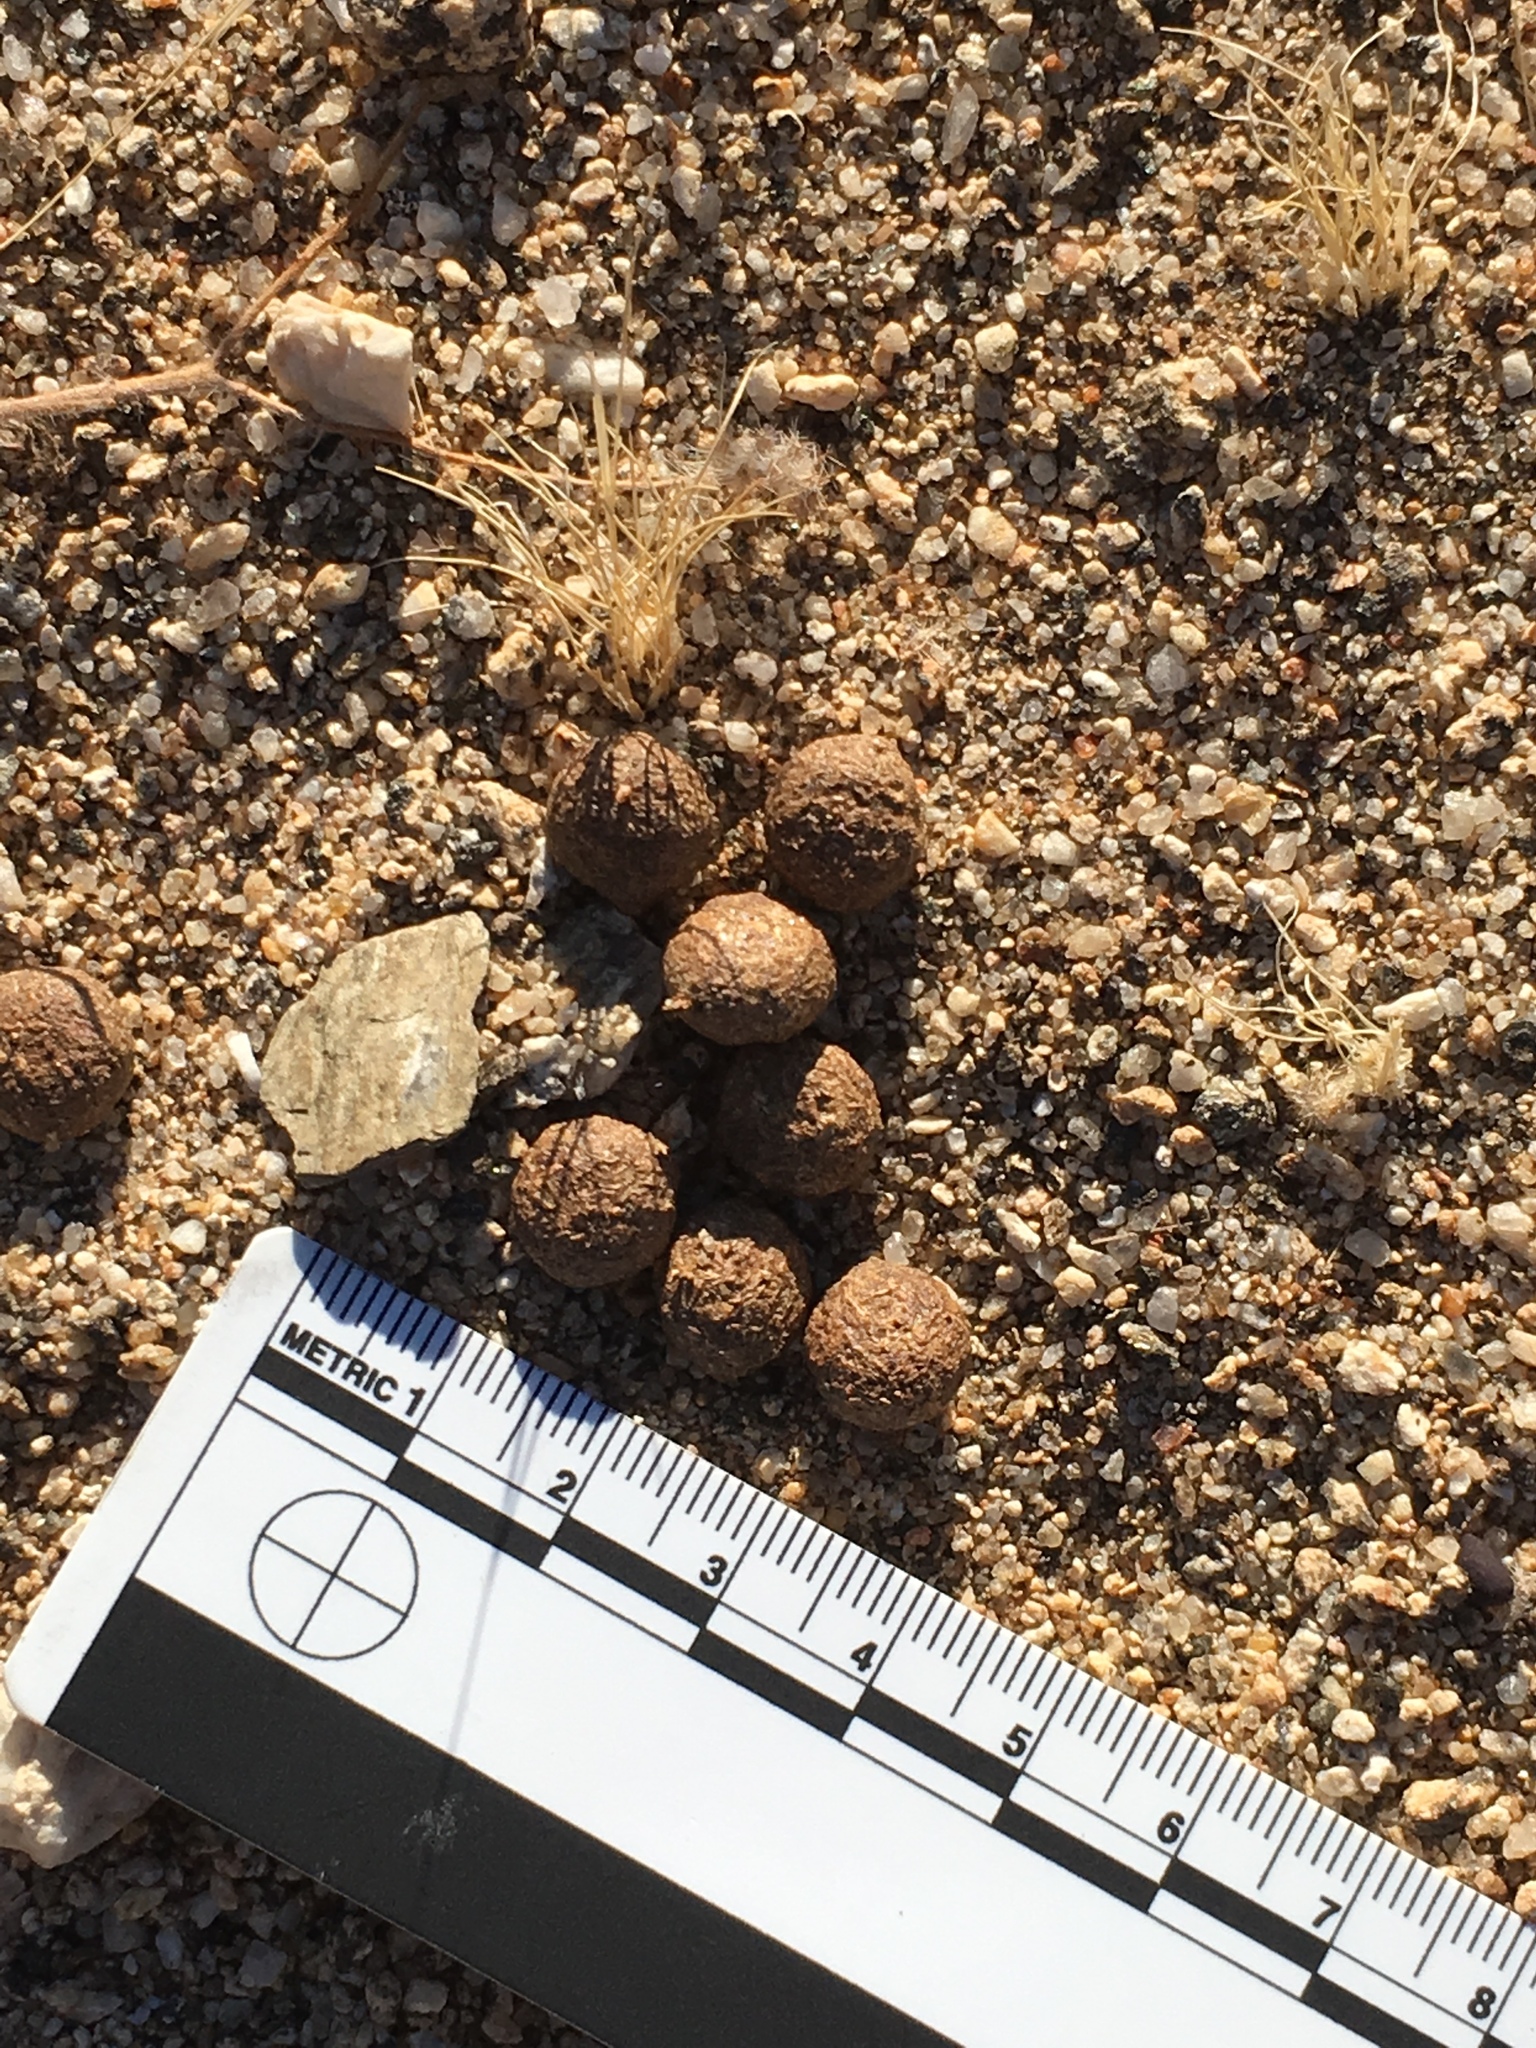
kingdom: Animalia
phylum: Chordata
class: Mammalia
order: Lagomorpha
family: Leporidae
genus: Lepus
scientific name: Lepus californicus
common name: Black-tailed jackrabbit
